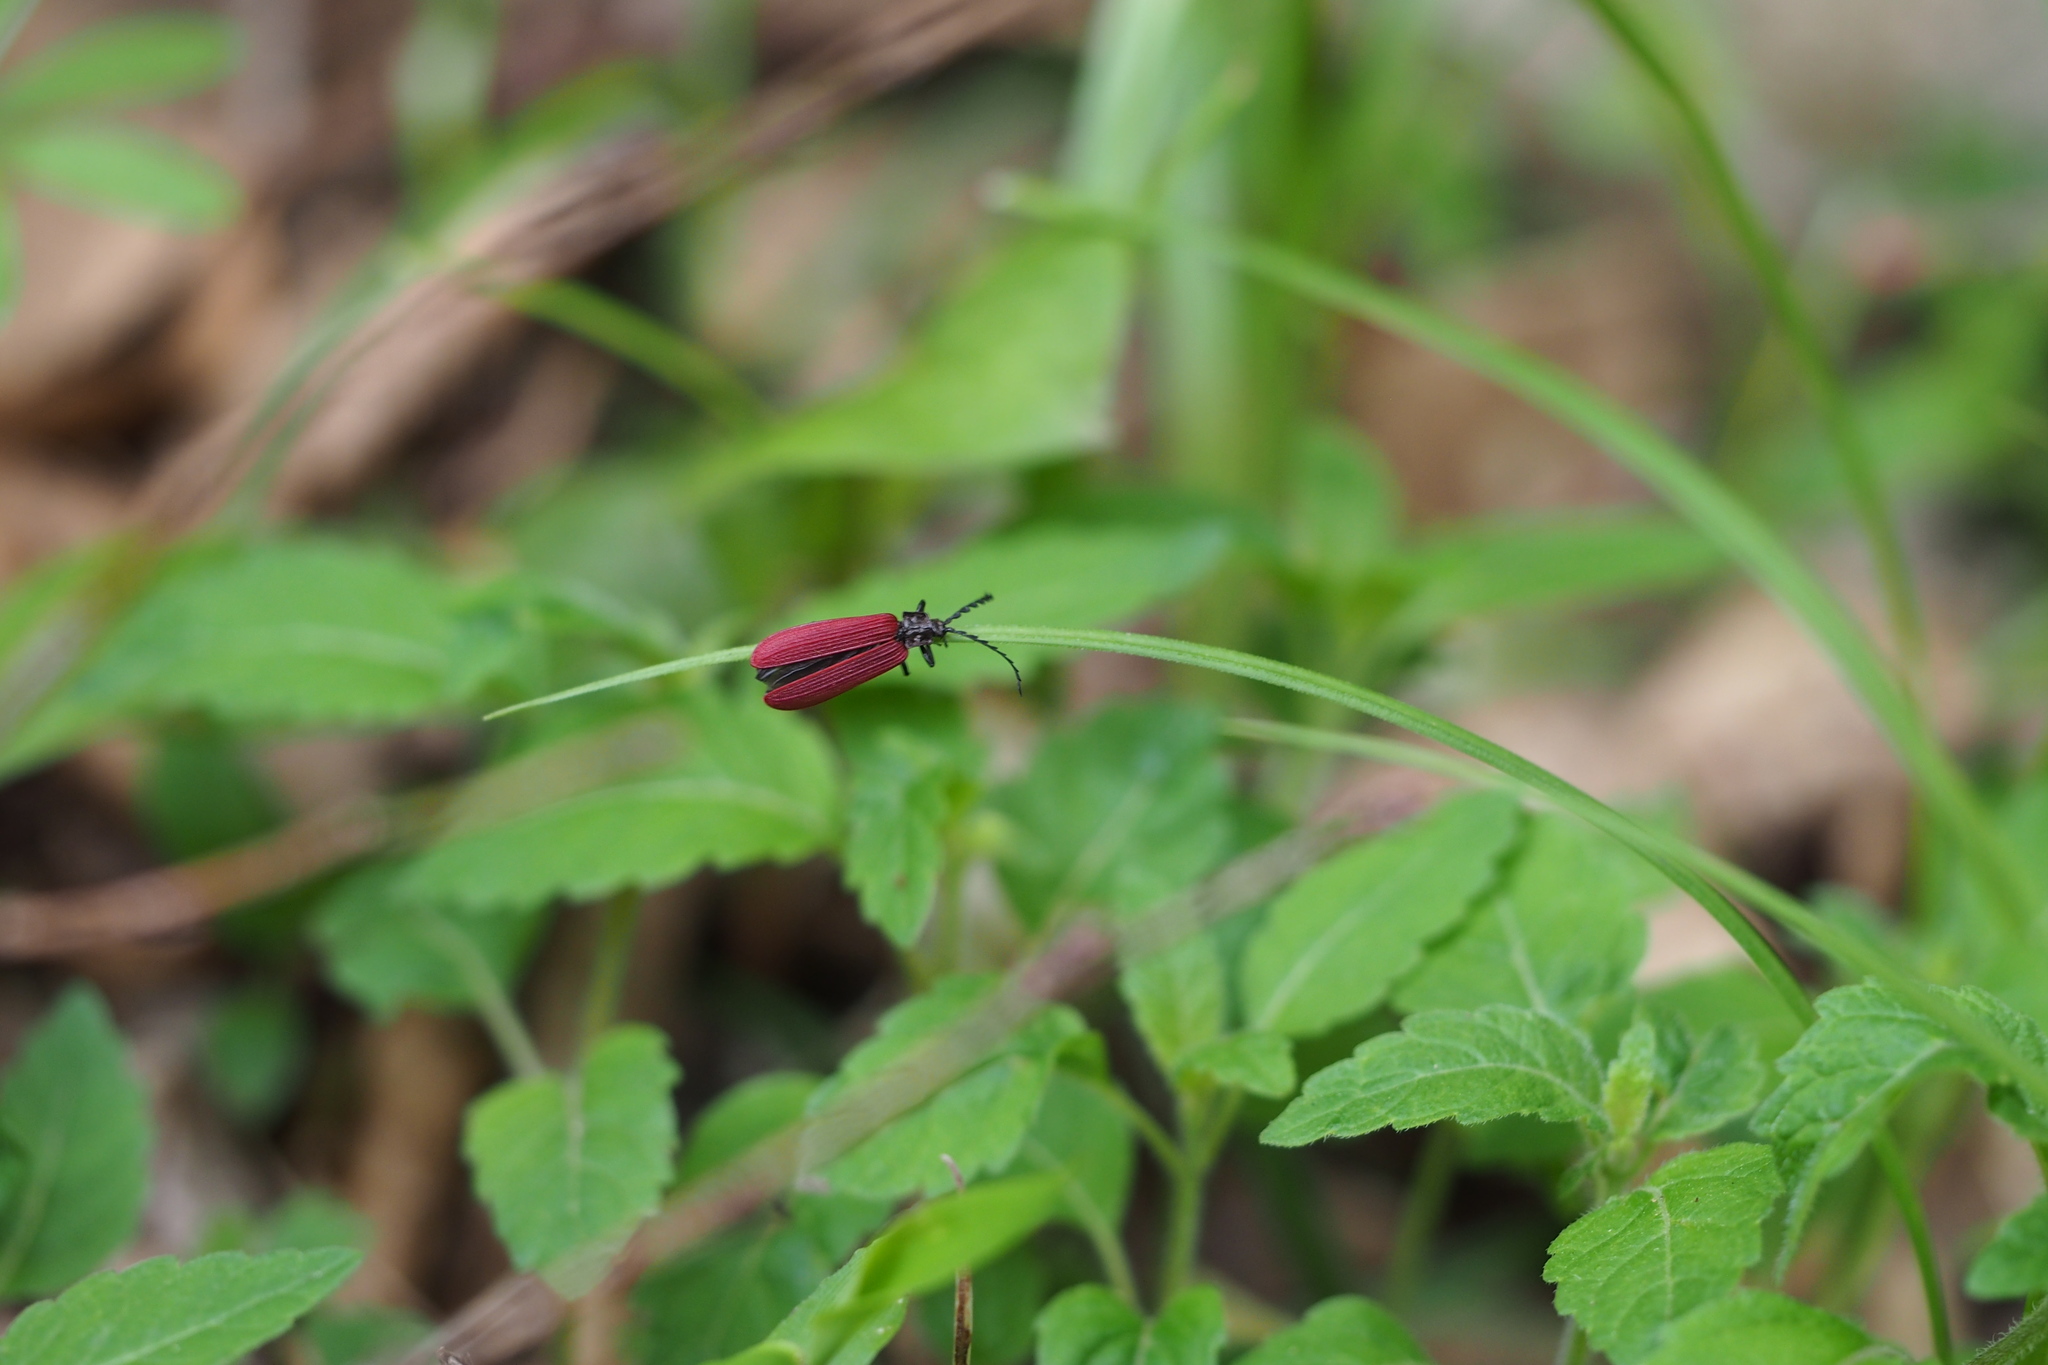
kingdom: Animalia
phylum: Arthropoda
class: Insecta
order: Coleoptera
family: Lycidae
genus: Ponyalis
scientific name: Ponyalis
